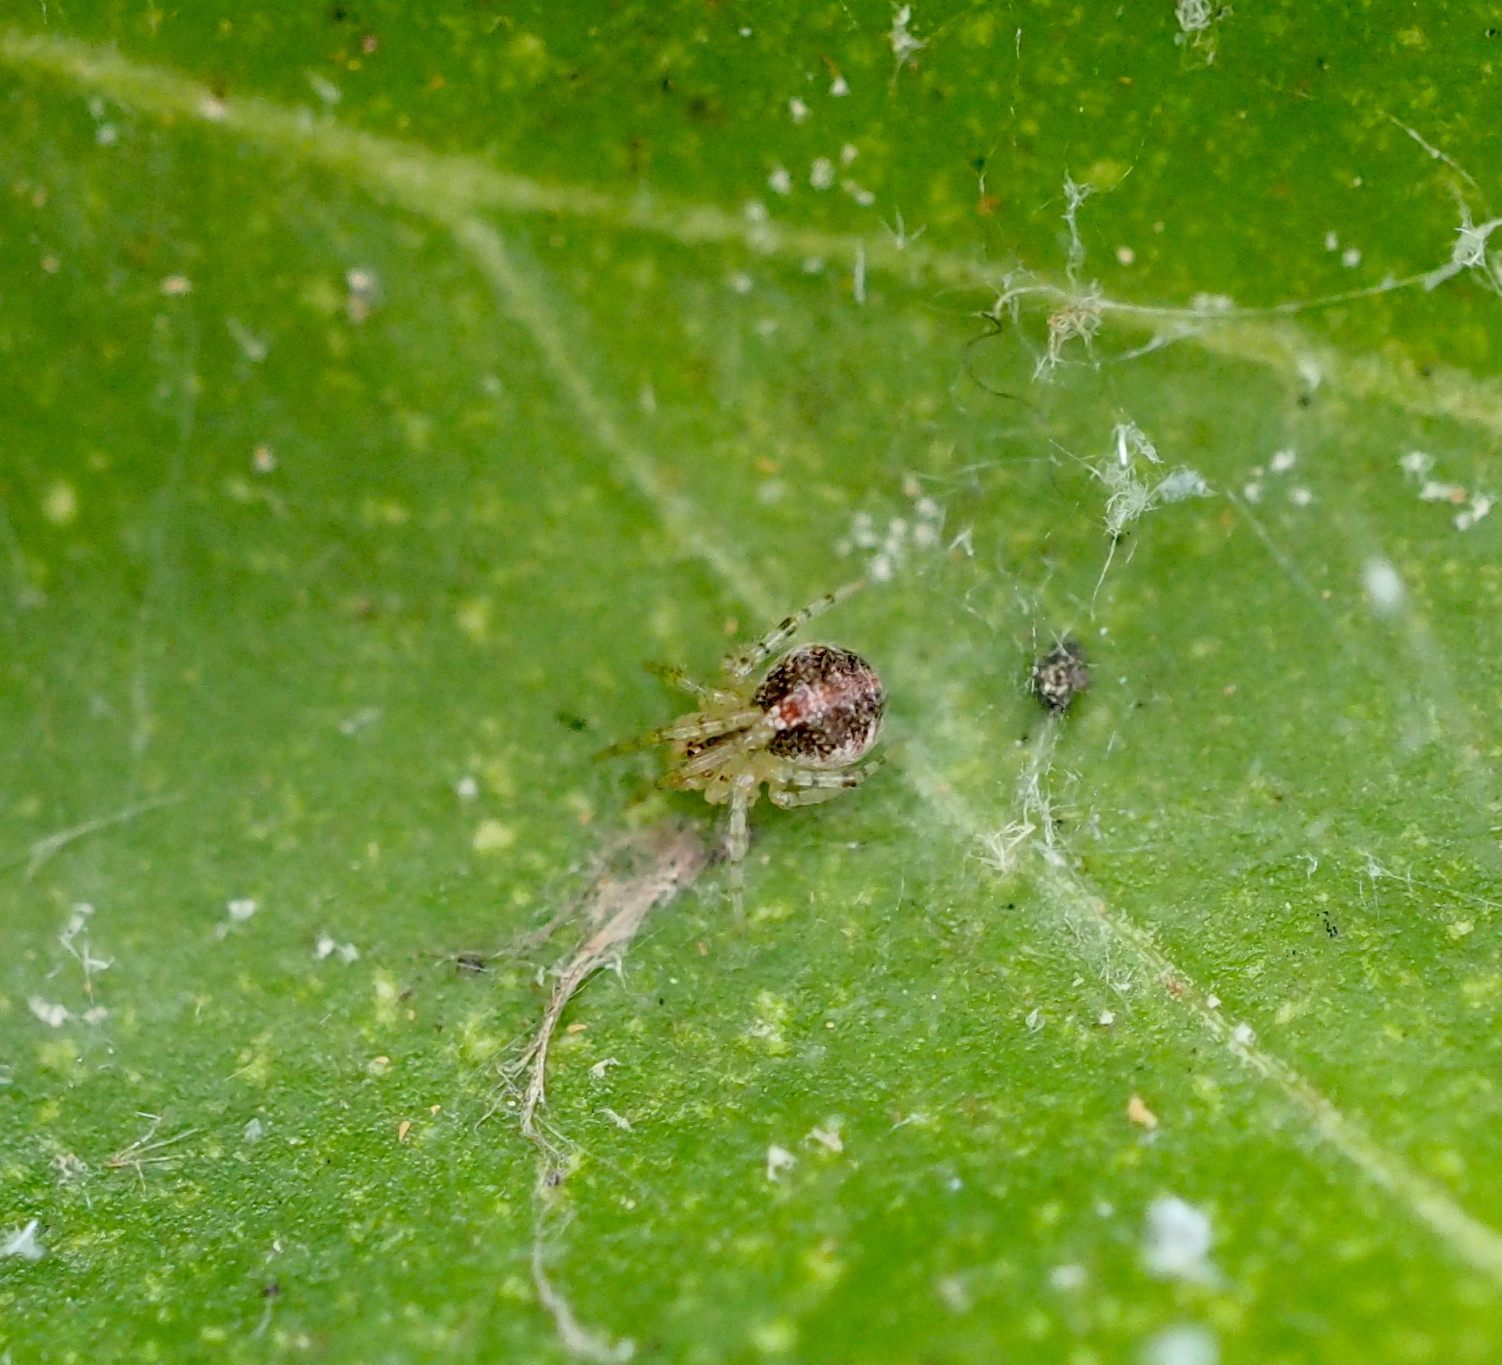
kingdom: Animalia
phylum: Arthropoda
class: Arachnida
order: Araneae
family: Theridiidae
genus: Theridion
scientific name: Theridion varians
